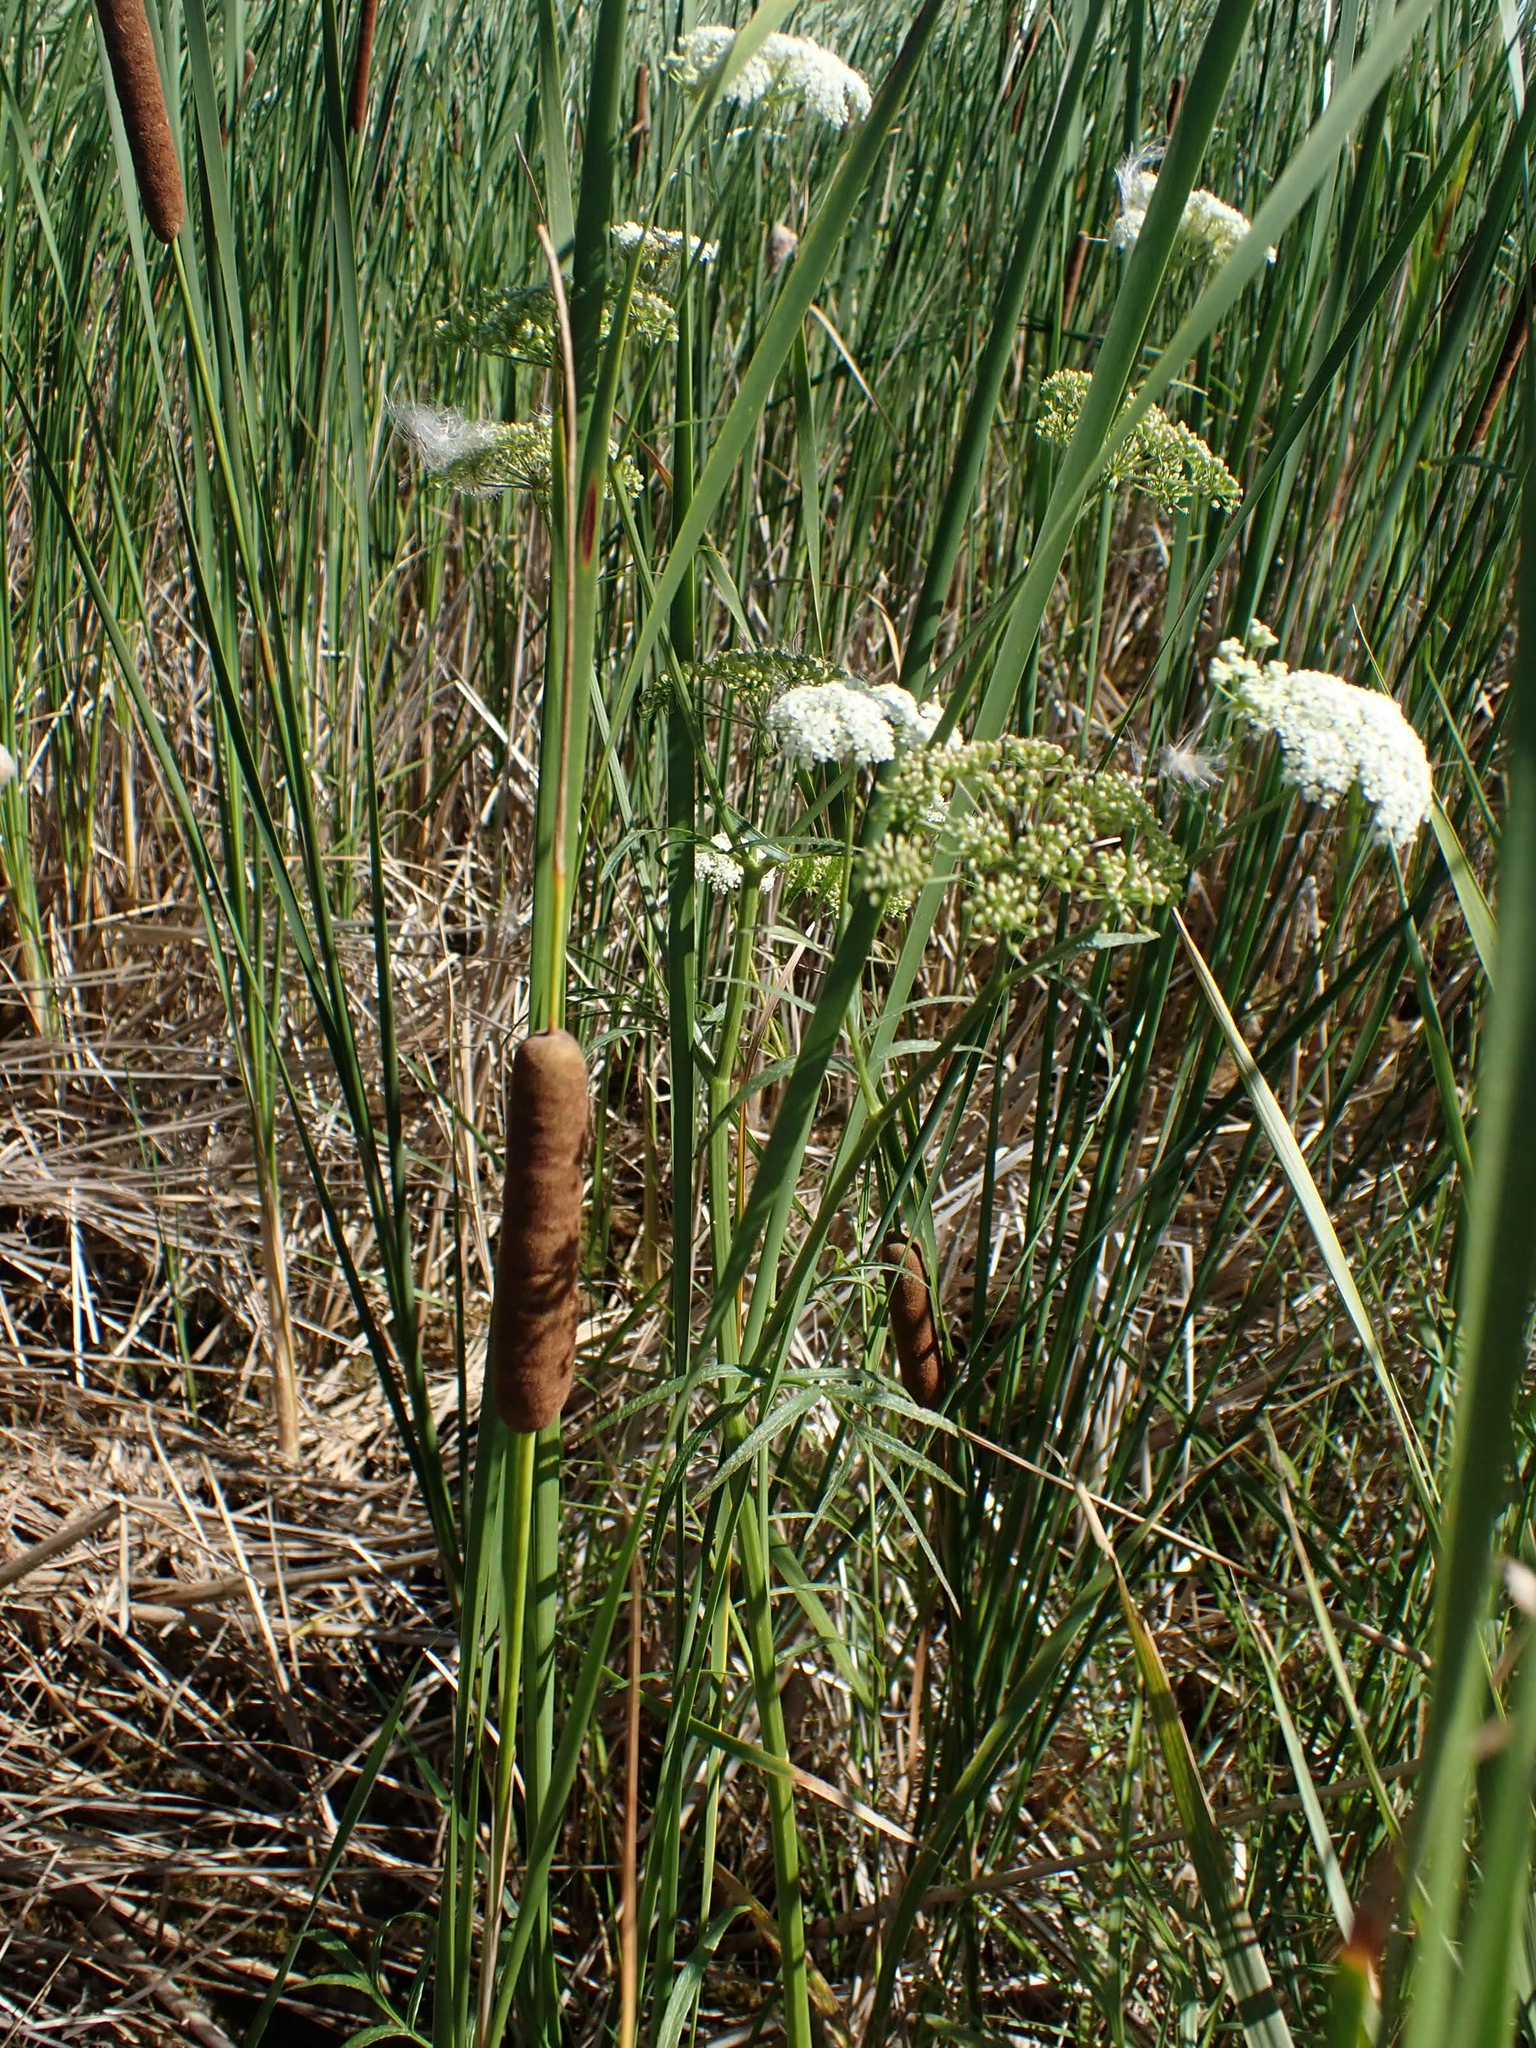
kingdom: Plantae
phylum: Tracheophyta
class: Magnoliopsida
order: Apiales
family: Apiaceae
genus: Sium
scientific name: Sium suave
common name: Hemlock water-parsnip
